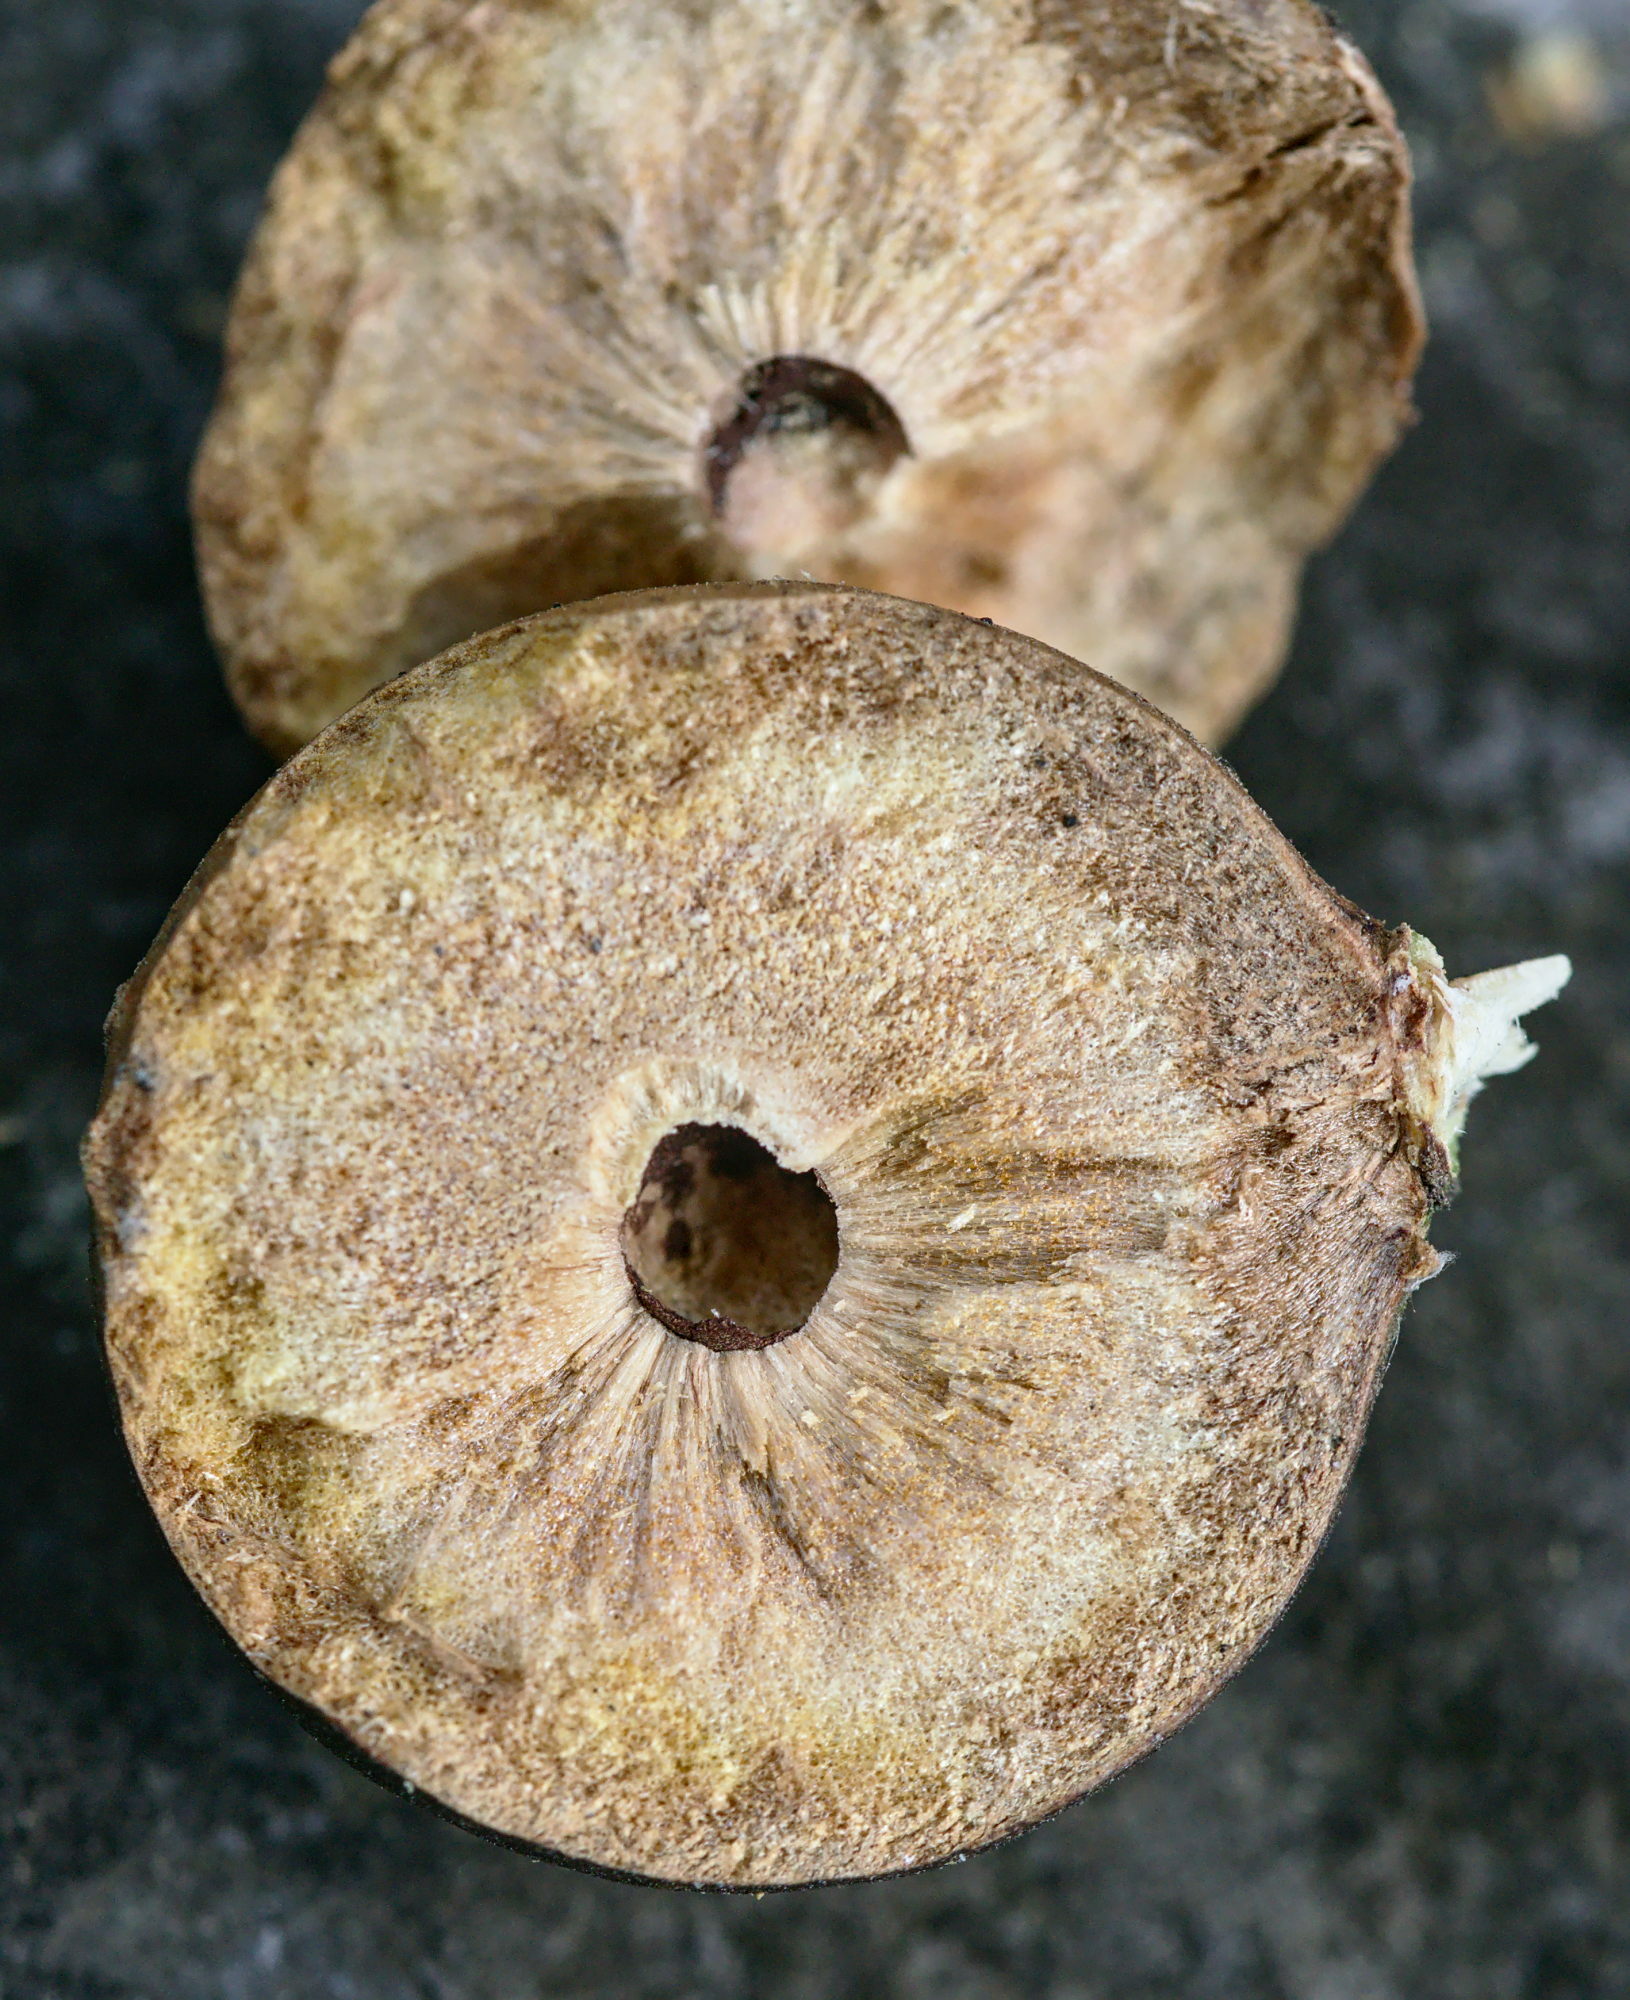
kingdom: Animalia
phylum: Arthropoda
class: Insecta
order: Hymenoptera
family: Cynipidae
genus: Andricus
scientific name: Andricus kollari
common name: Marble gall
